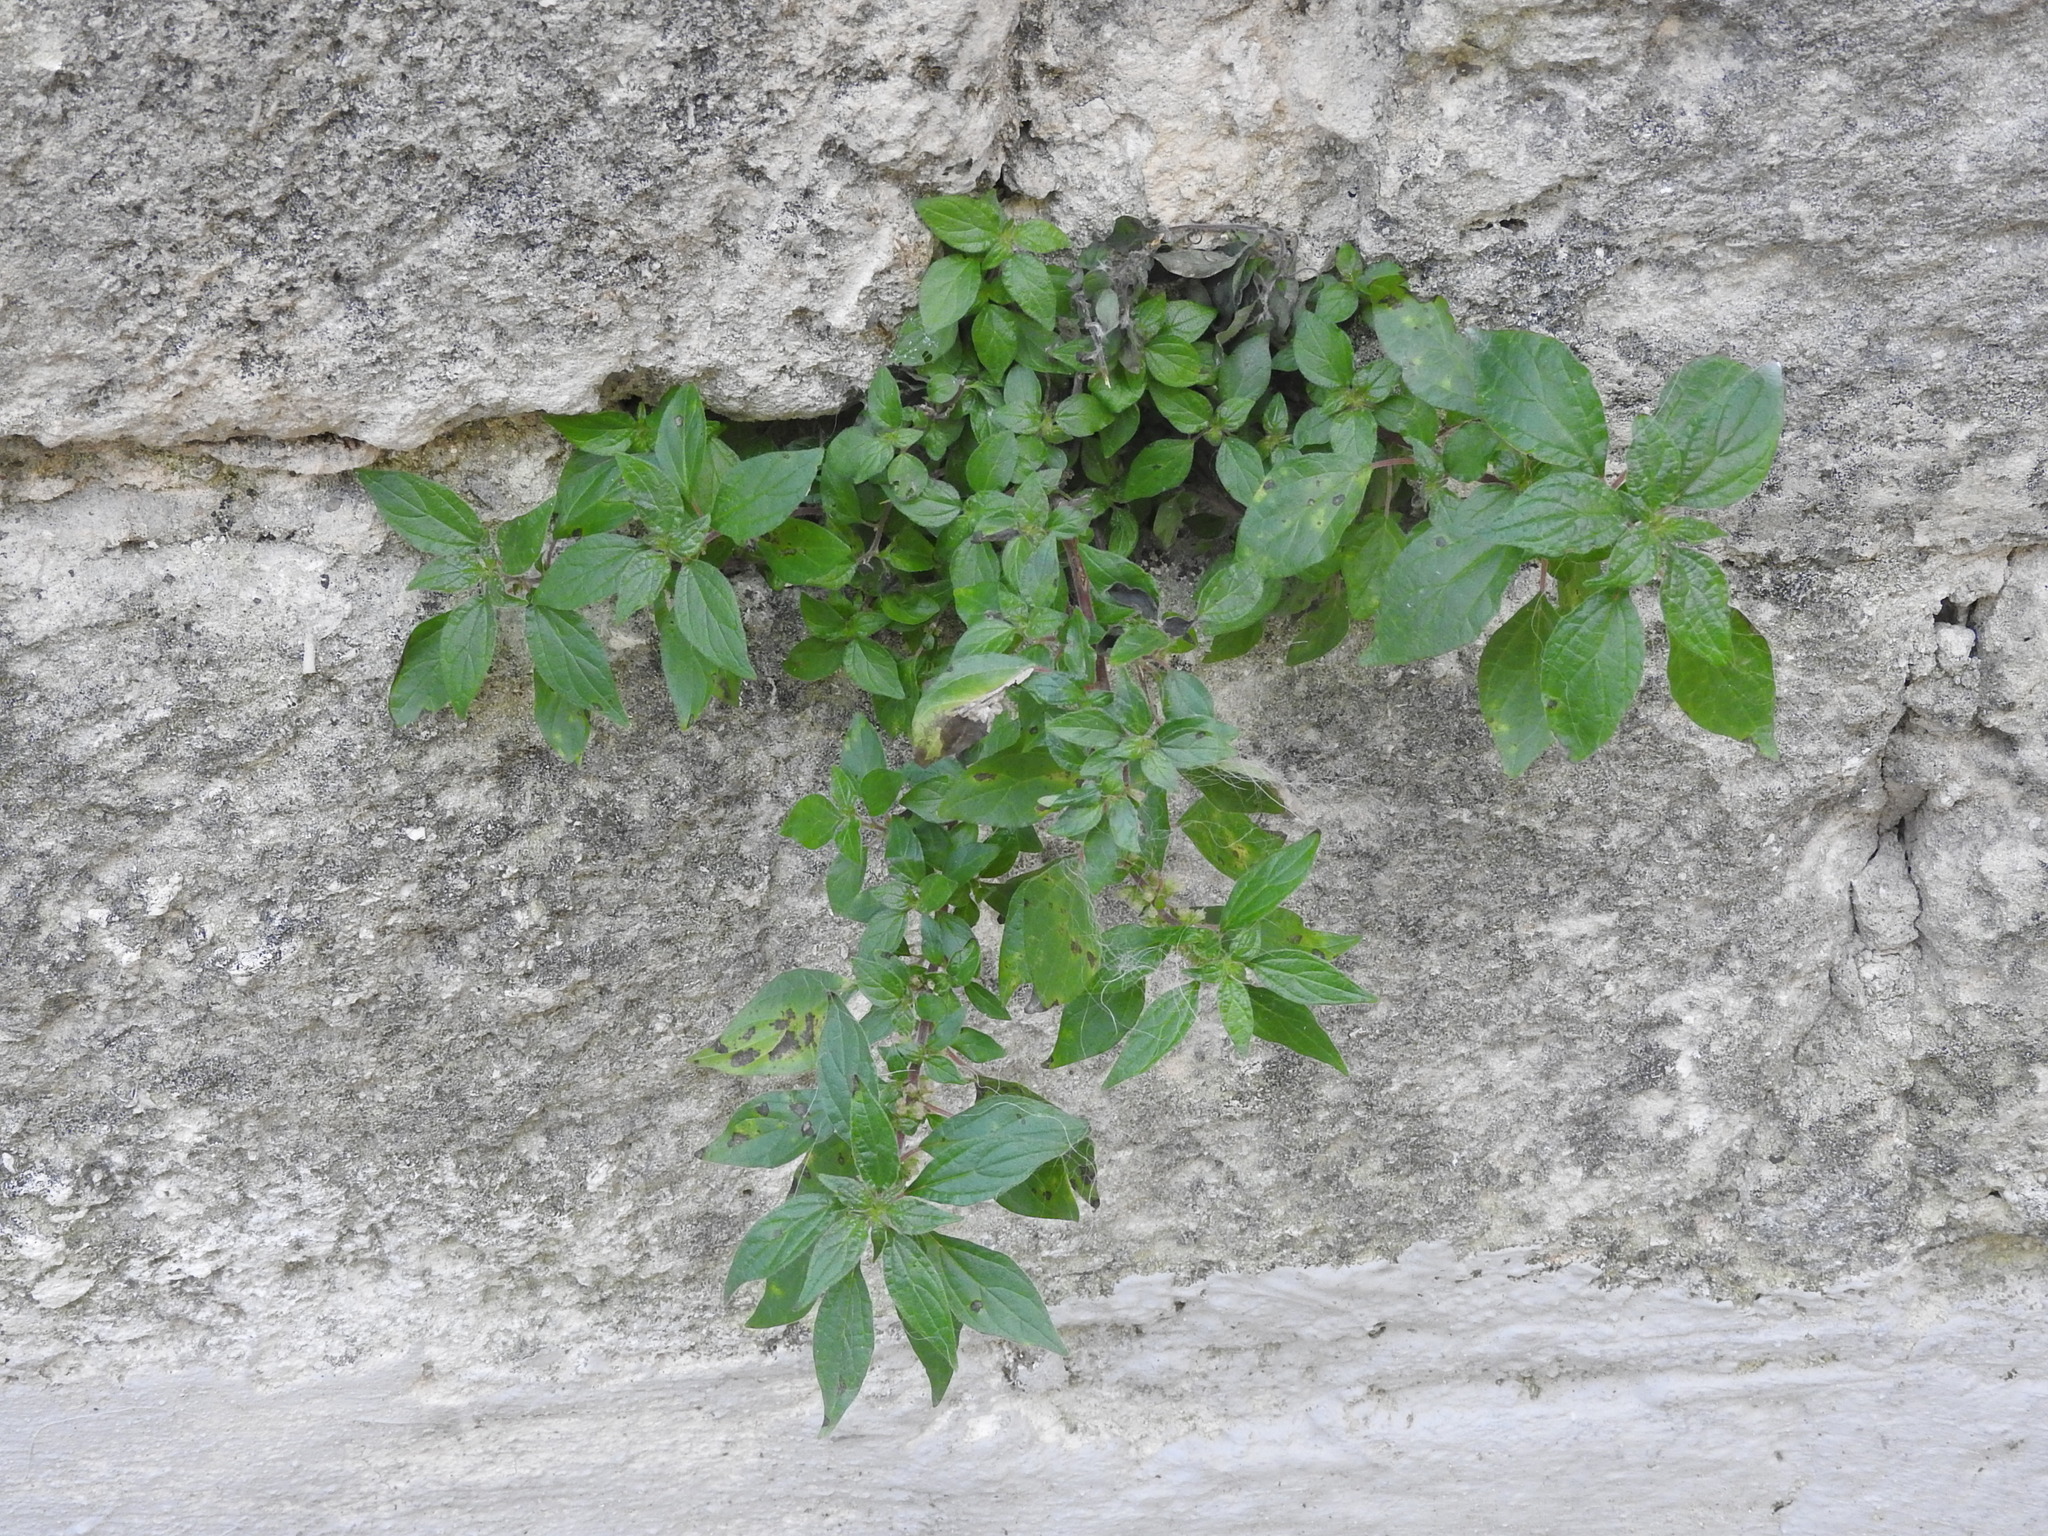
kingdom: Plantae
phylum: Tracheophyta
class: Magnoliopsida
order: Rosales
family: Urticaceae
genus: Parietaria
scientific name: Parietaria officinalis
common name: Eastern pellitory-of-the-wall
